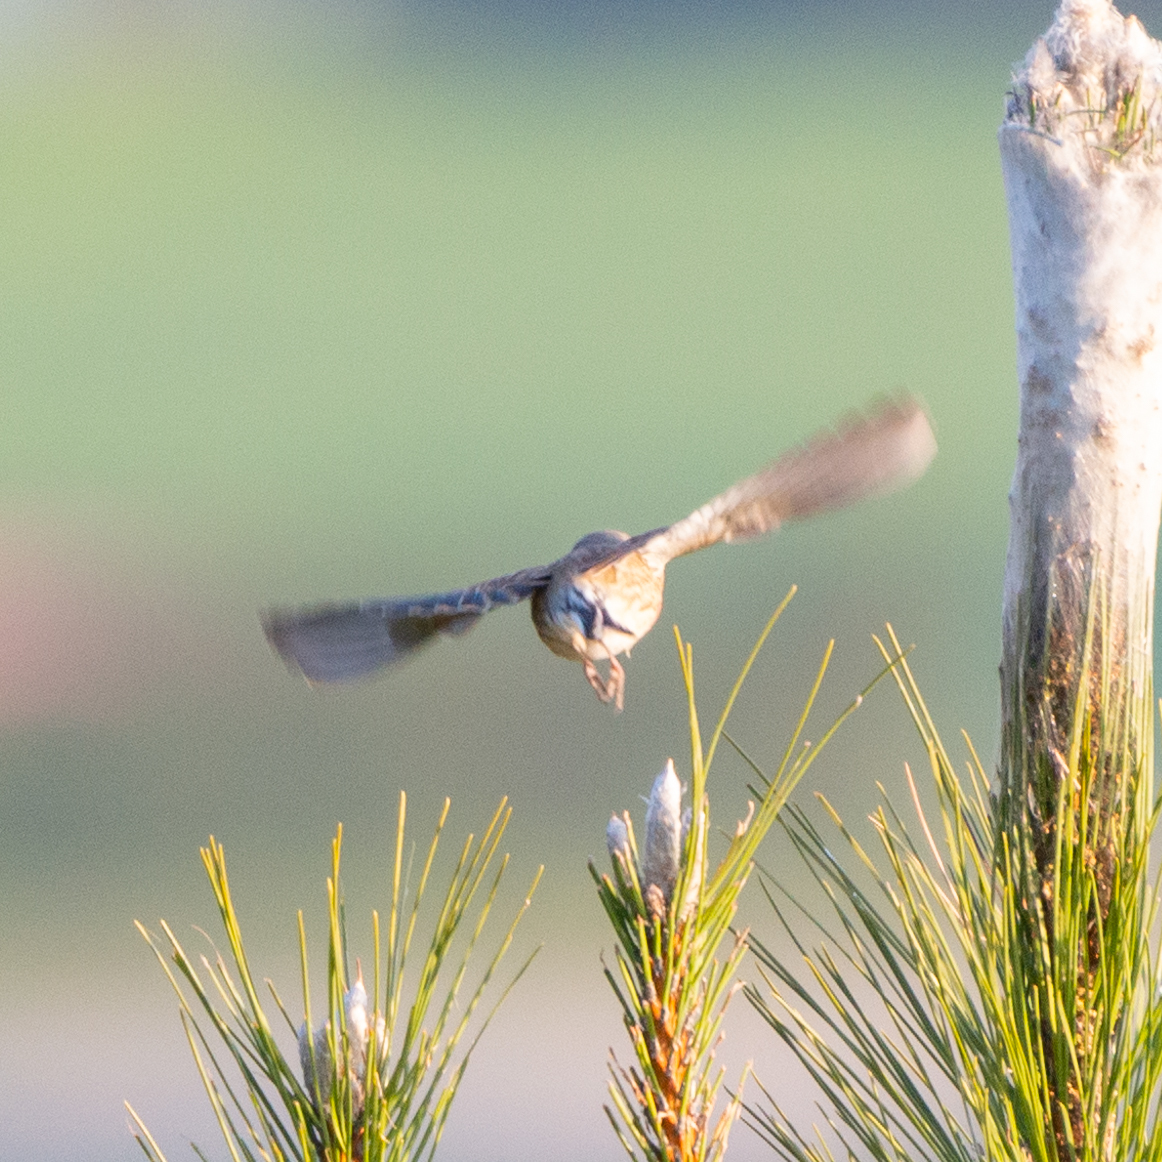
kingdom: Animalia
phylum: Chordata
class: Aves
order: Passeriformes
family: Fringillidae
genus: Linaria
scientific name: Linaria cannabina
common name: Common linnet
